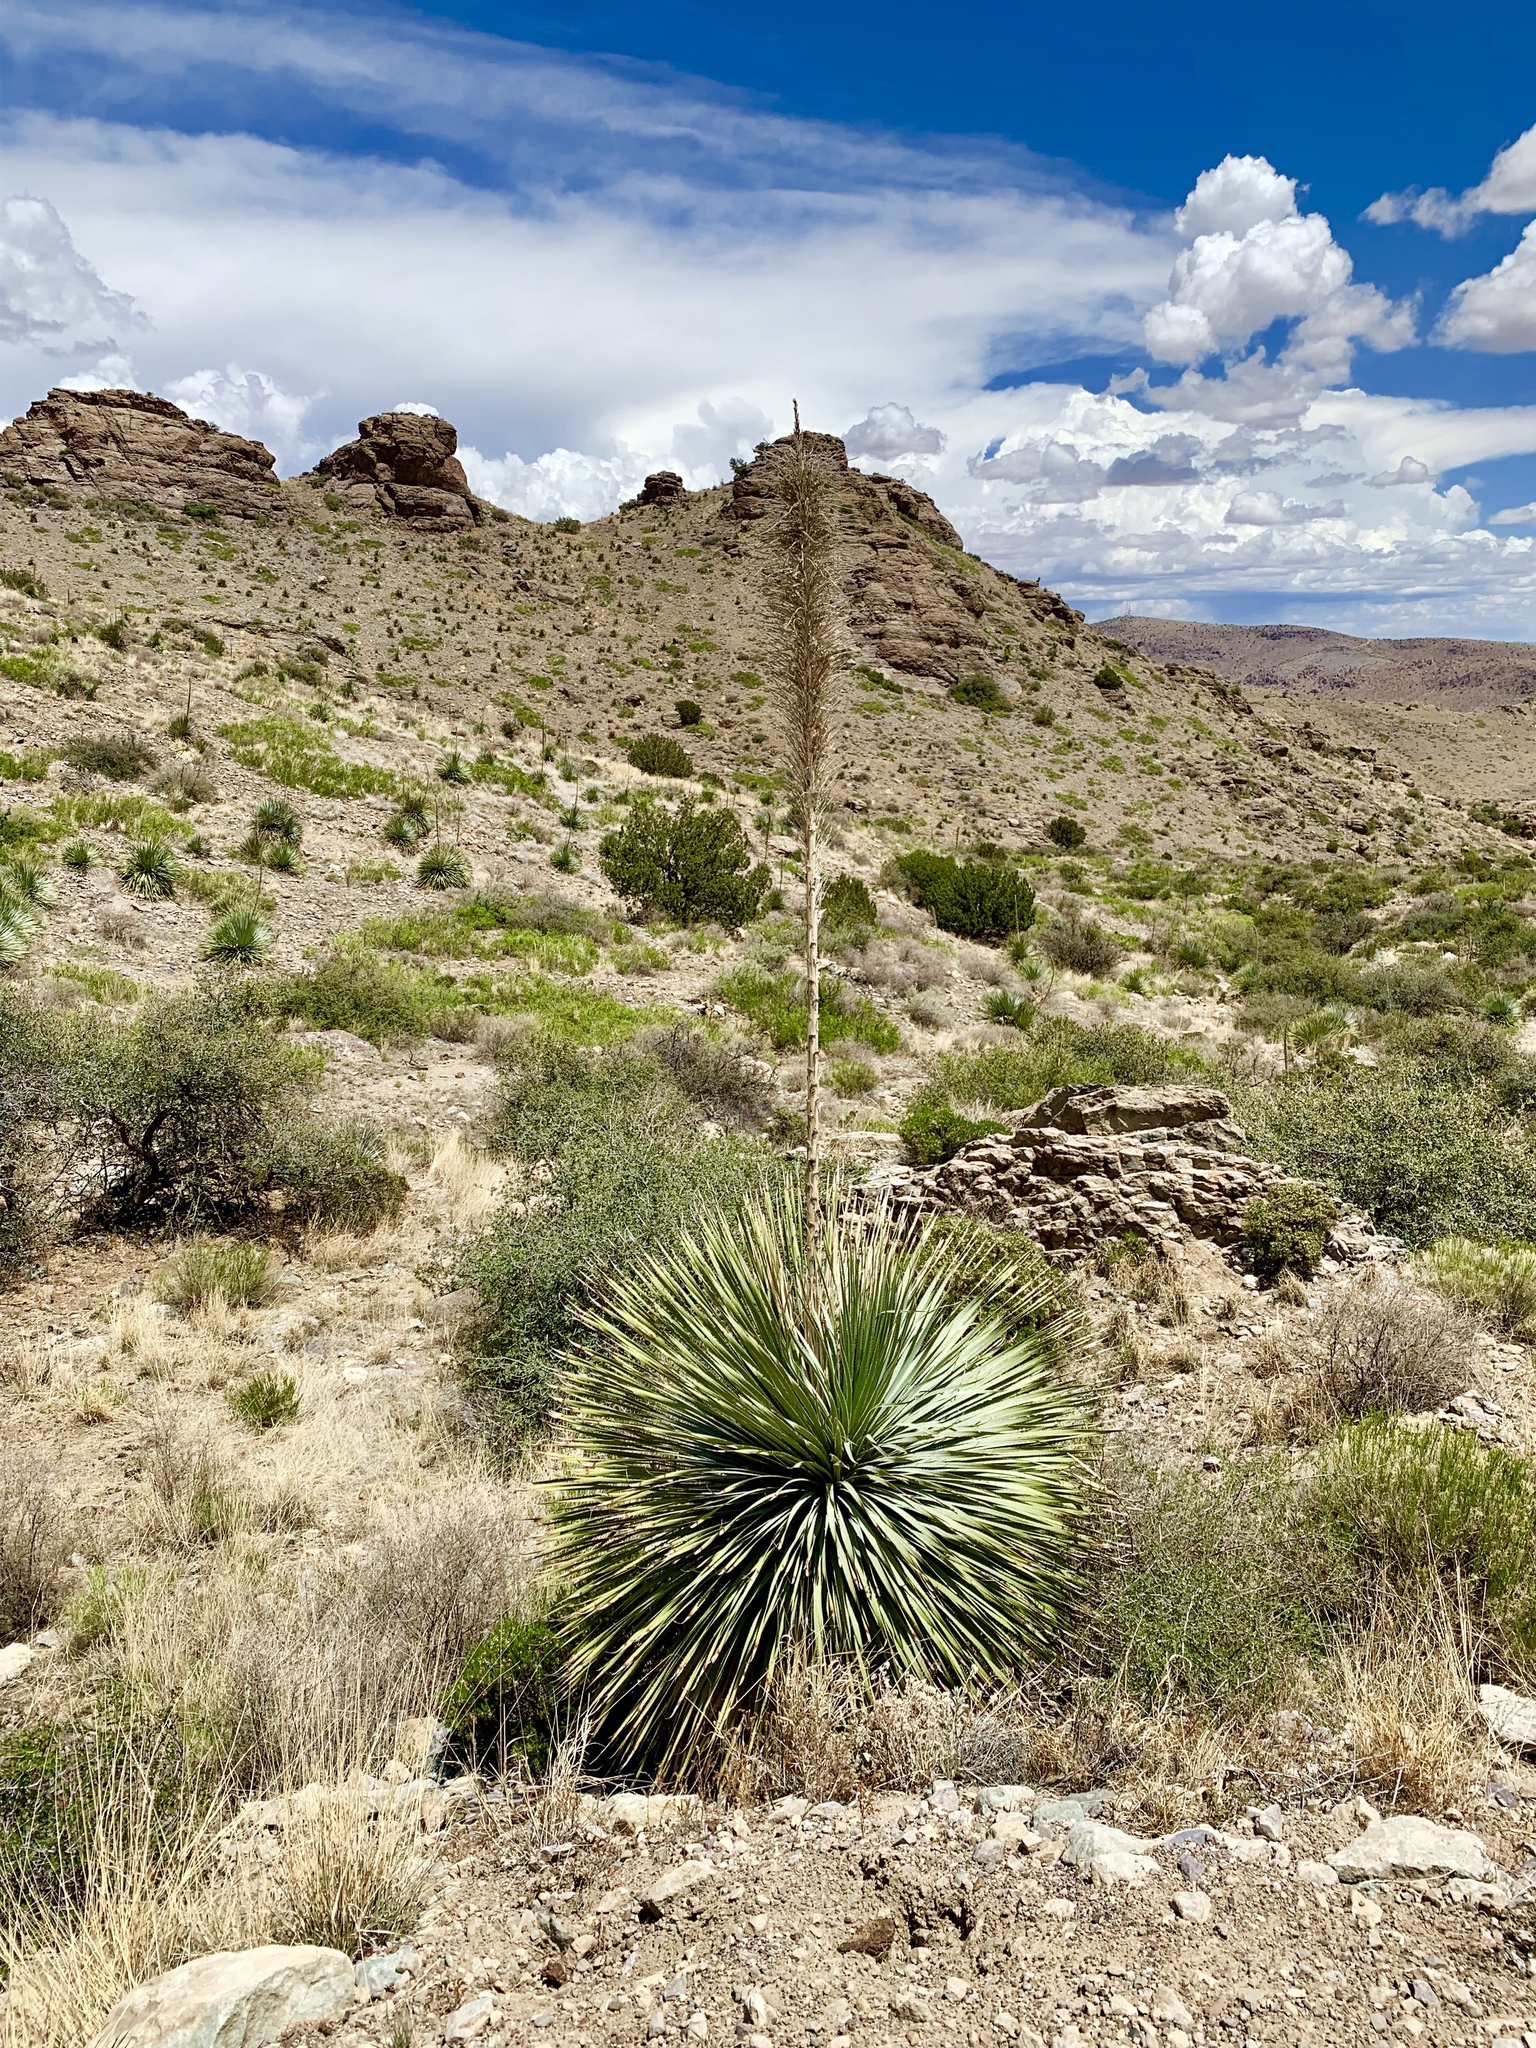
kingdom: Plantae
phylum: Tracheophyta
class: Liliopsida
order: Asparagales
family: Asparagaceae
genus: Dasylirion
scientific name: Dasylirion wheeleri
